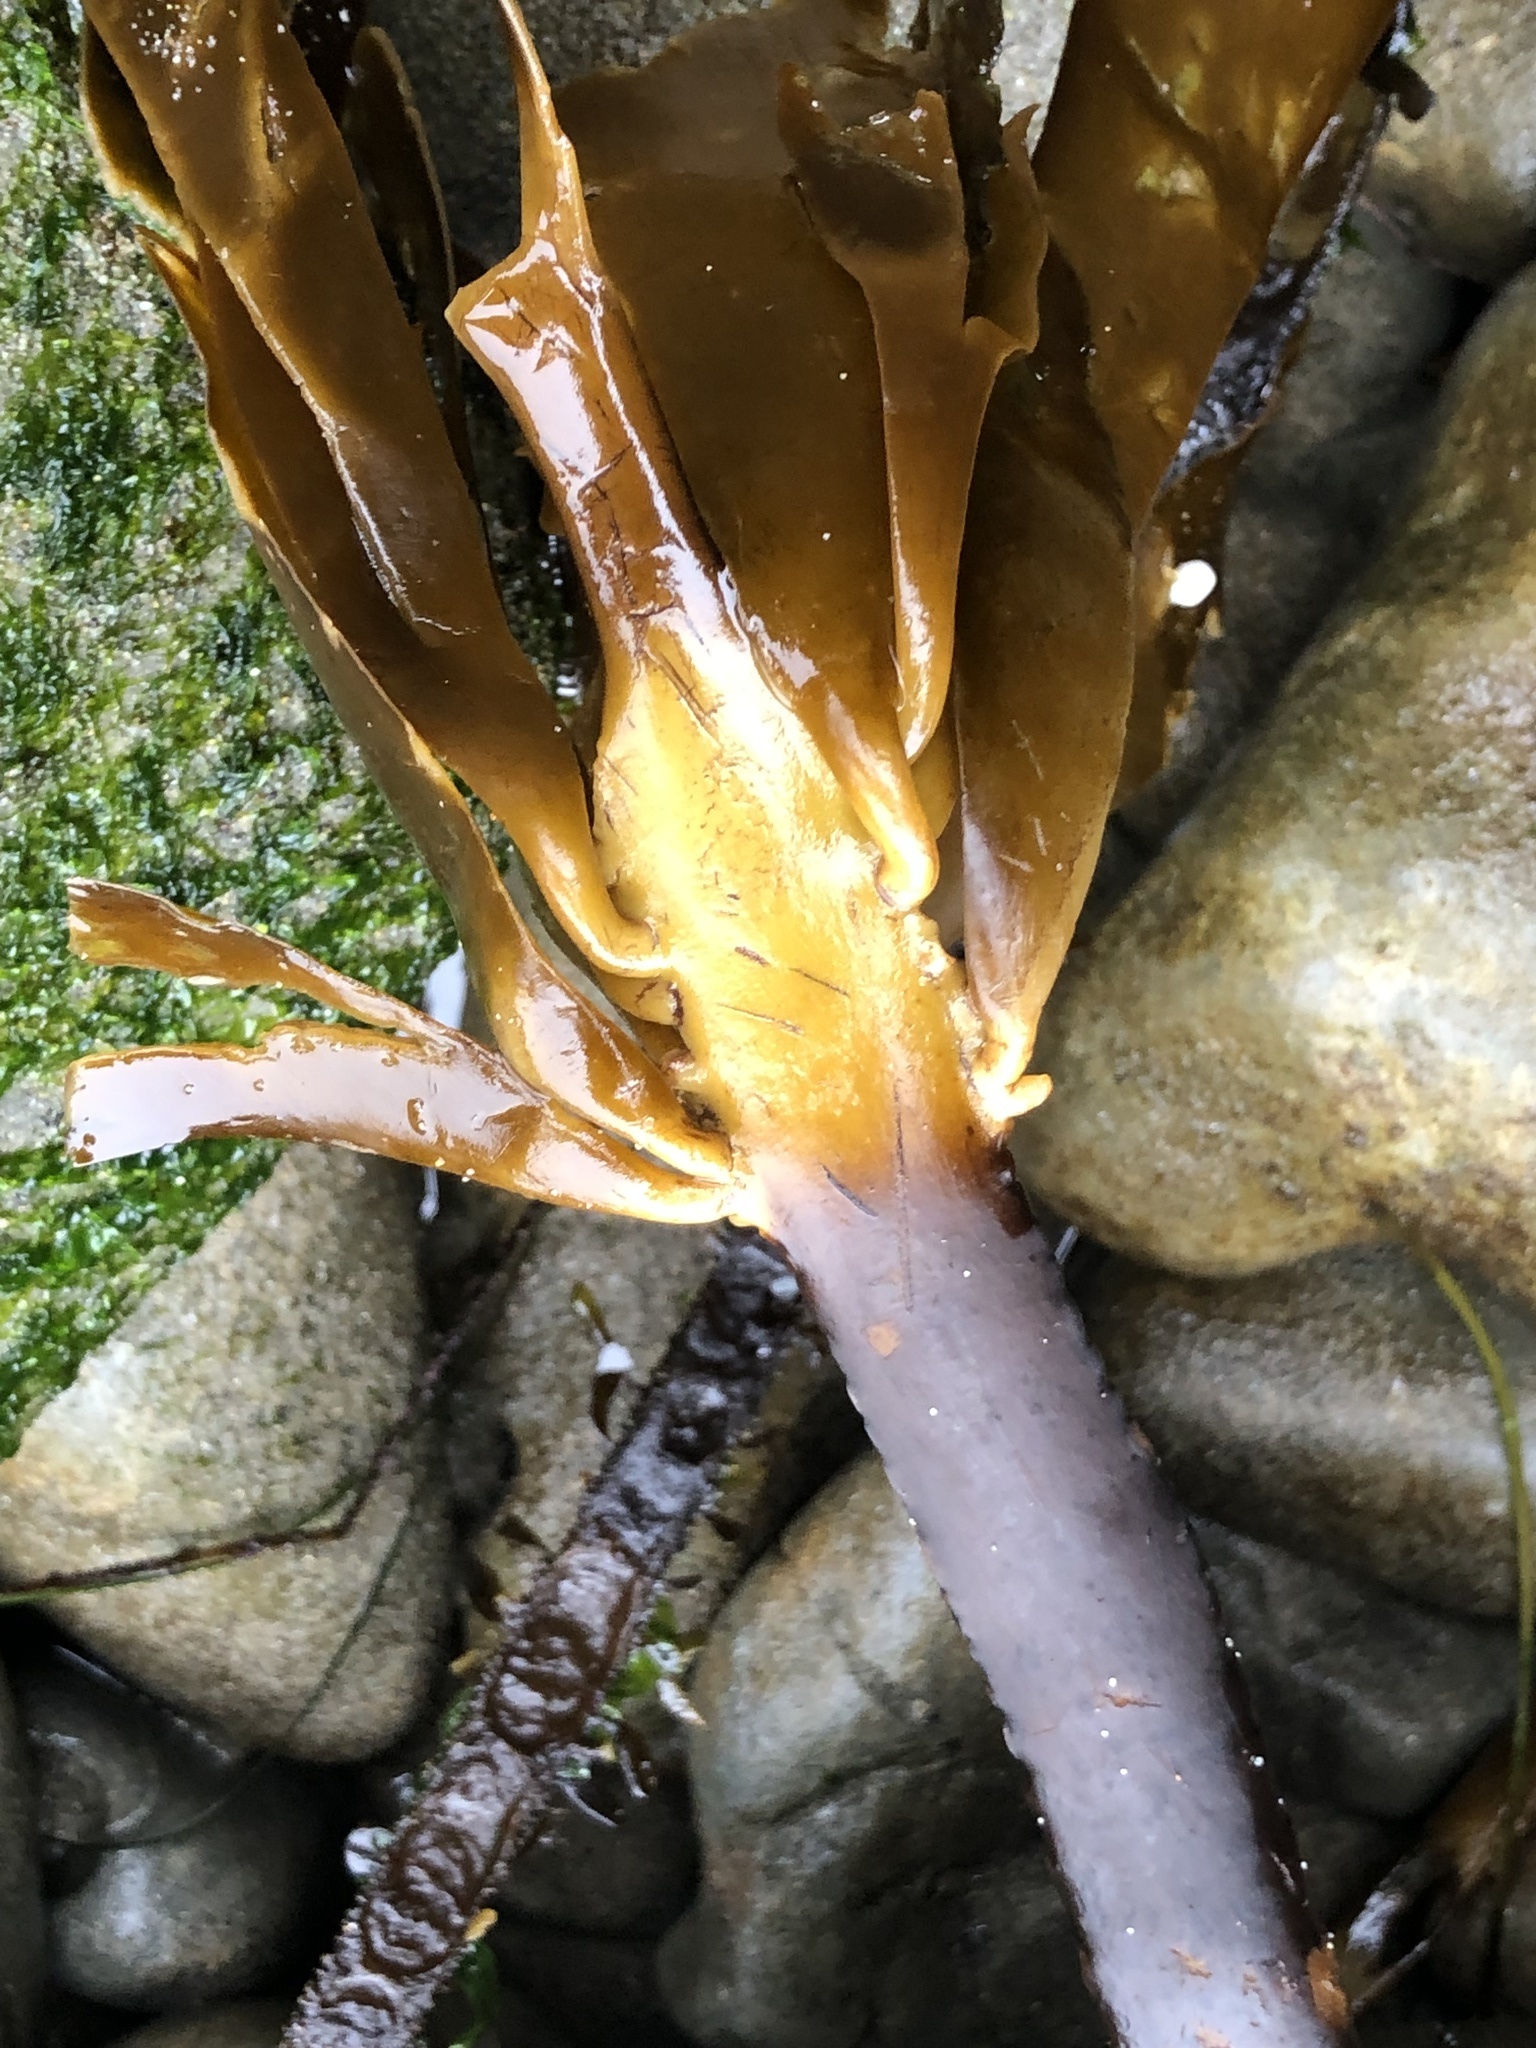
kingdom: Chromista
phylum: Ochrophyta
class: Phaeophyceae
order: Laminariales
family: Alariaceae
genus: Pterygophora
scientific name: Pterygophora californica
